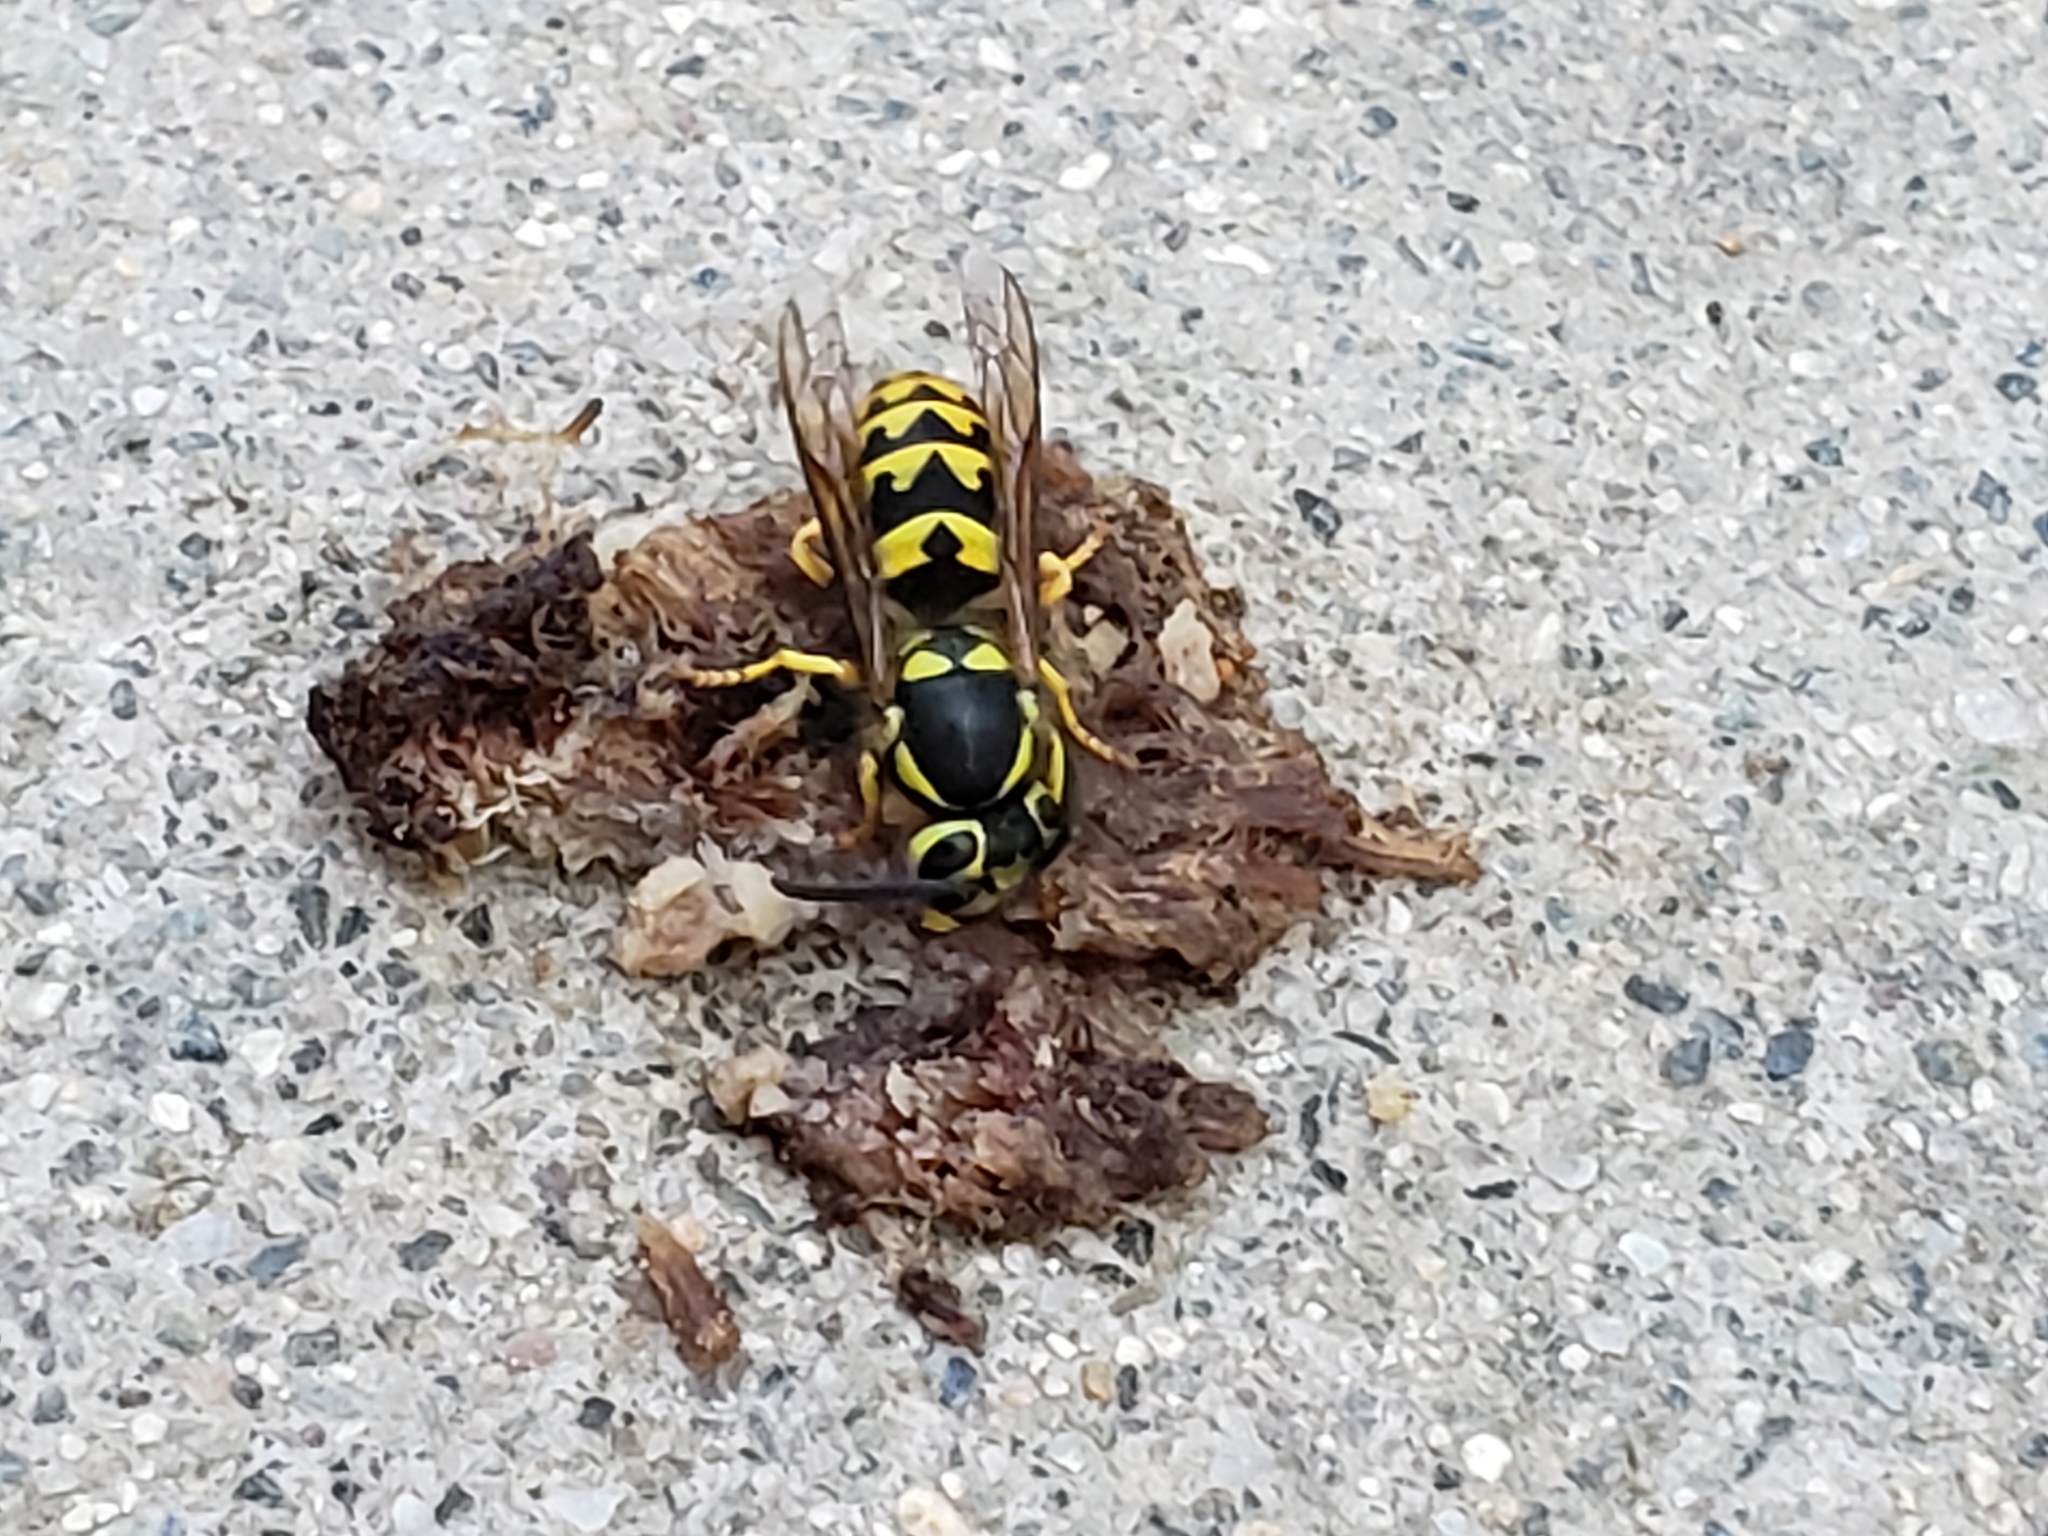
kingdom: Animalia
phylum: Arthropoda
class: Insecta
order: Hymenoptera
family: Vespidae
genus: Vespula
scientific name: Vespula pensylvanica
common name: Western yellowjacket
